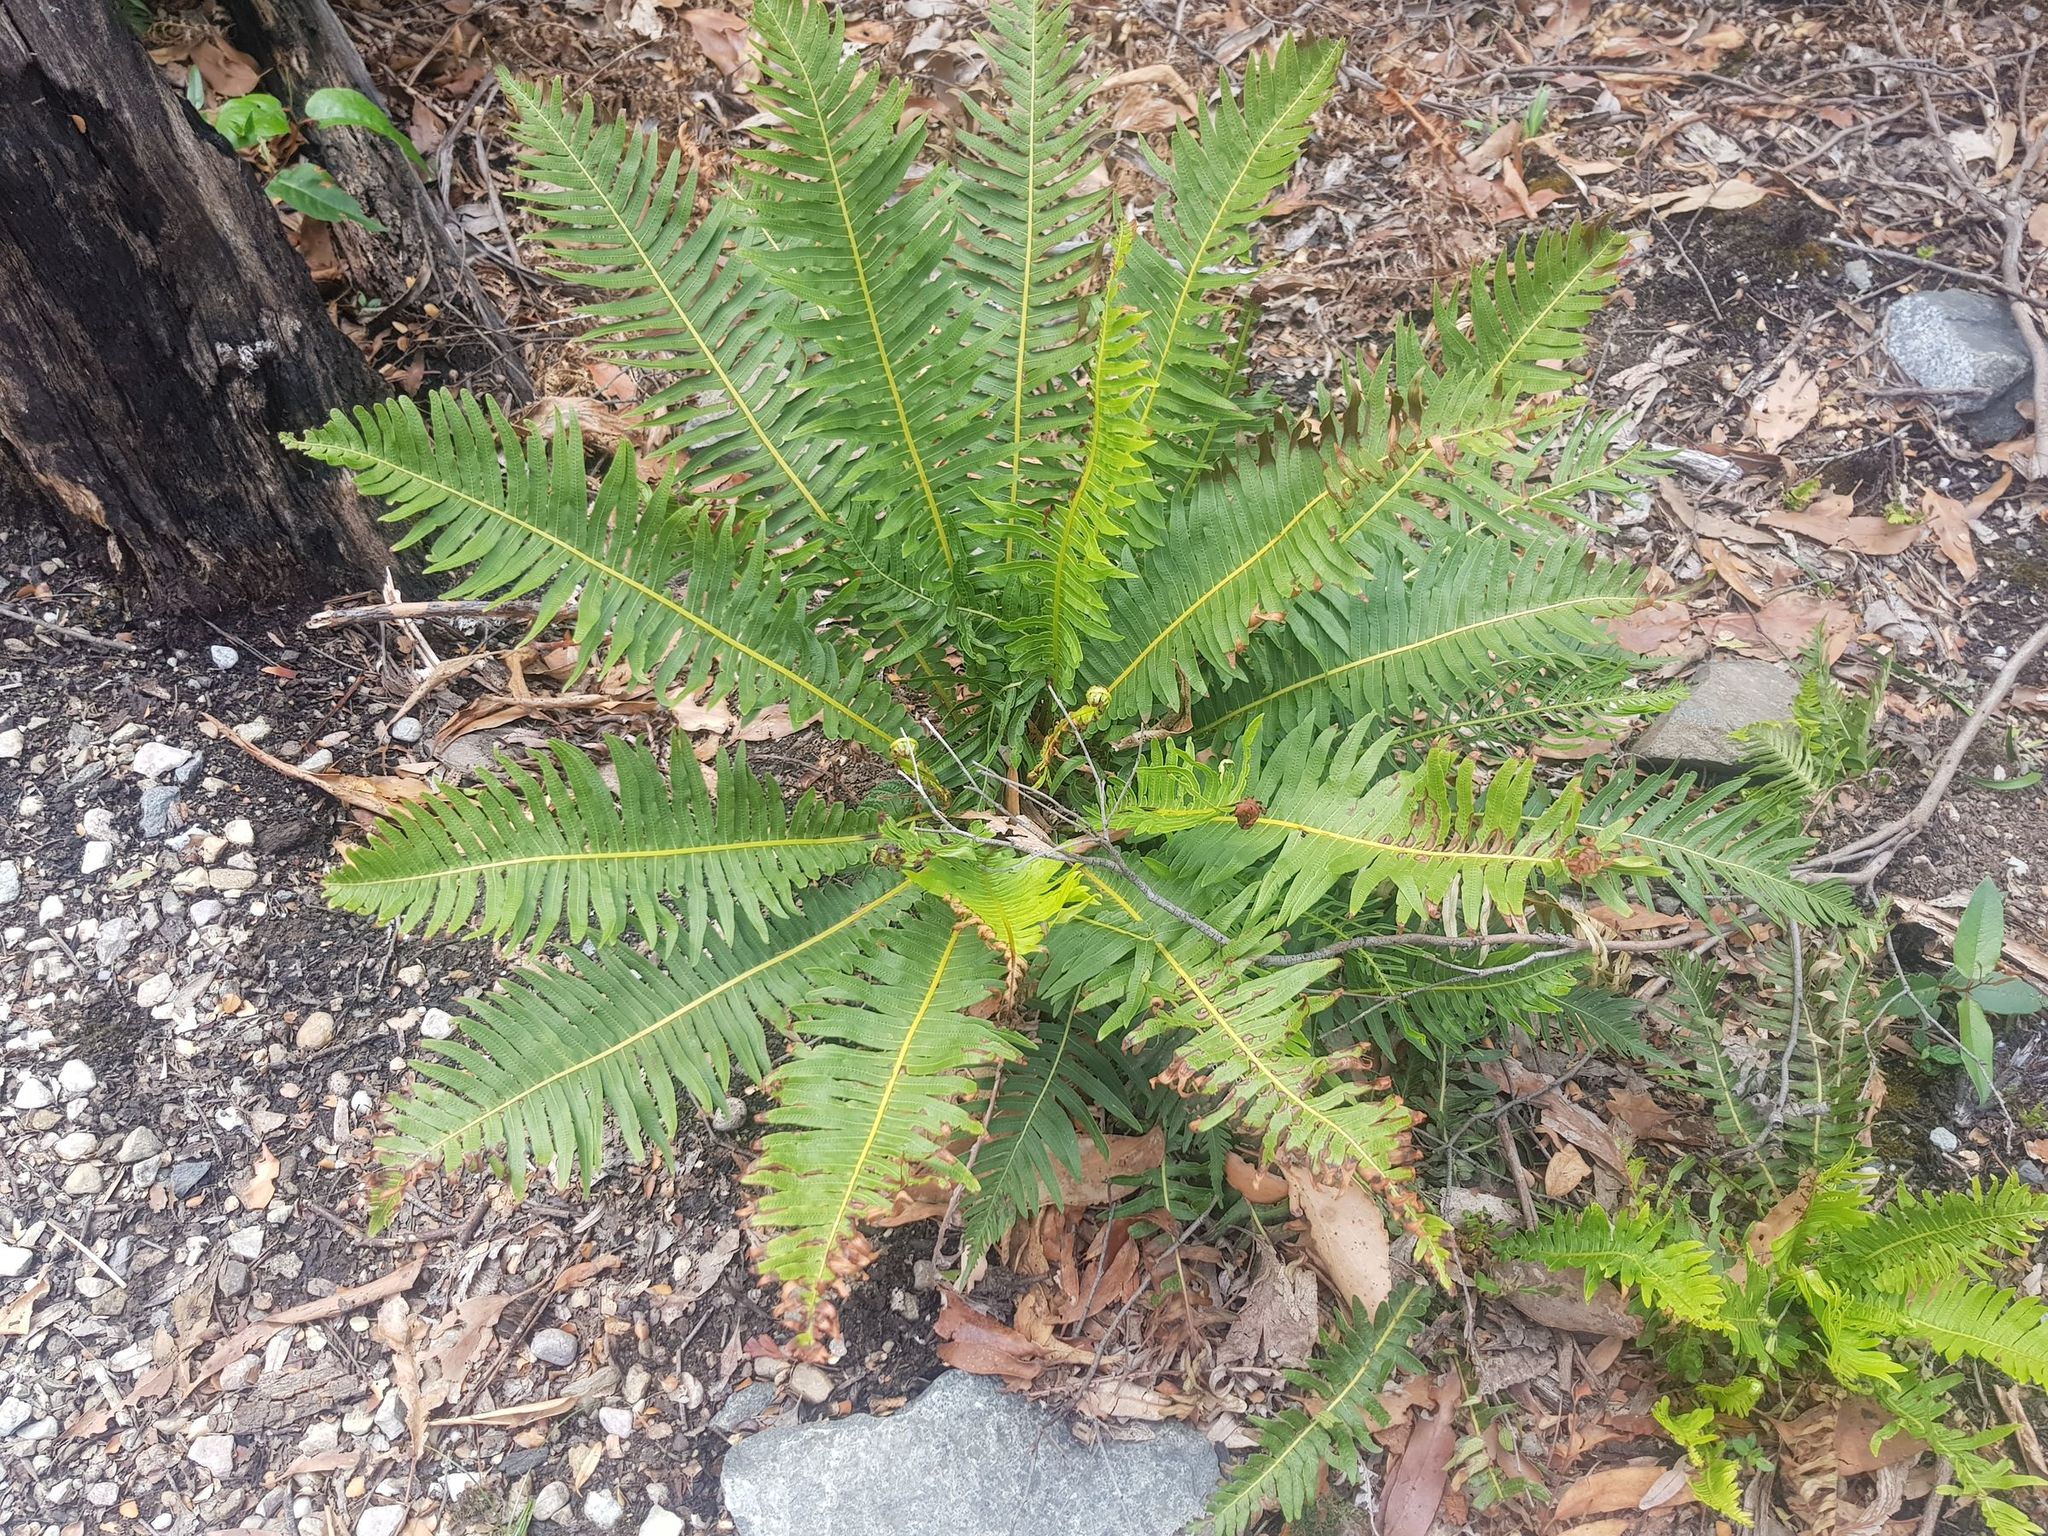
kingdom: Plantae
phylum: Tracheophyta
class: Polypodiopsida
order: Polypodiales
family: Blechnaceae
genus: Lomaria
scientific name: Lomaria nuda
